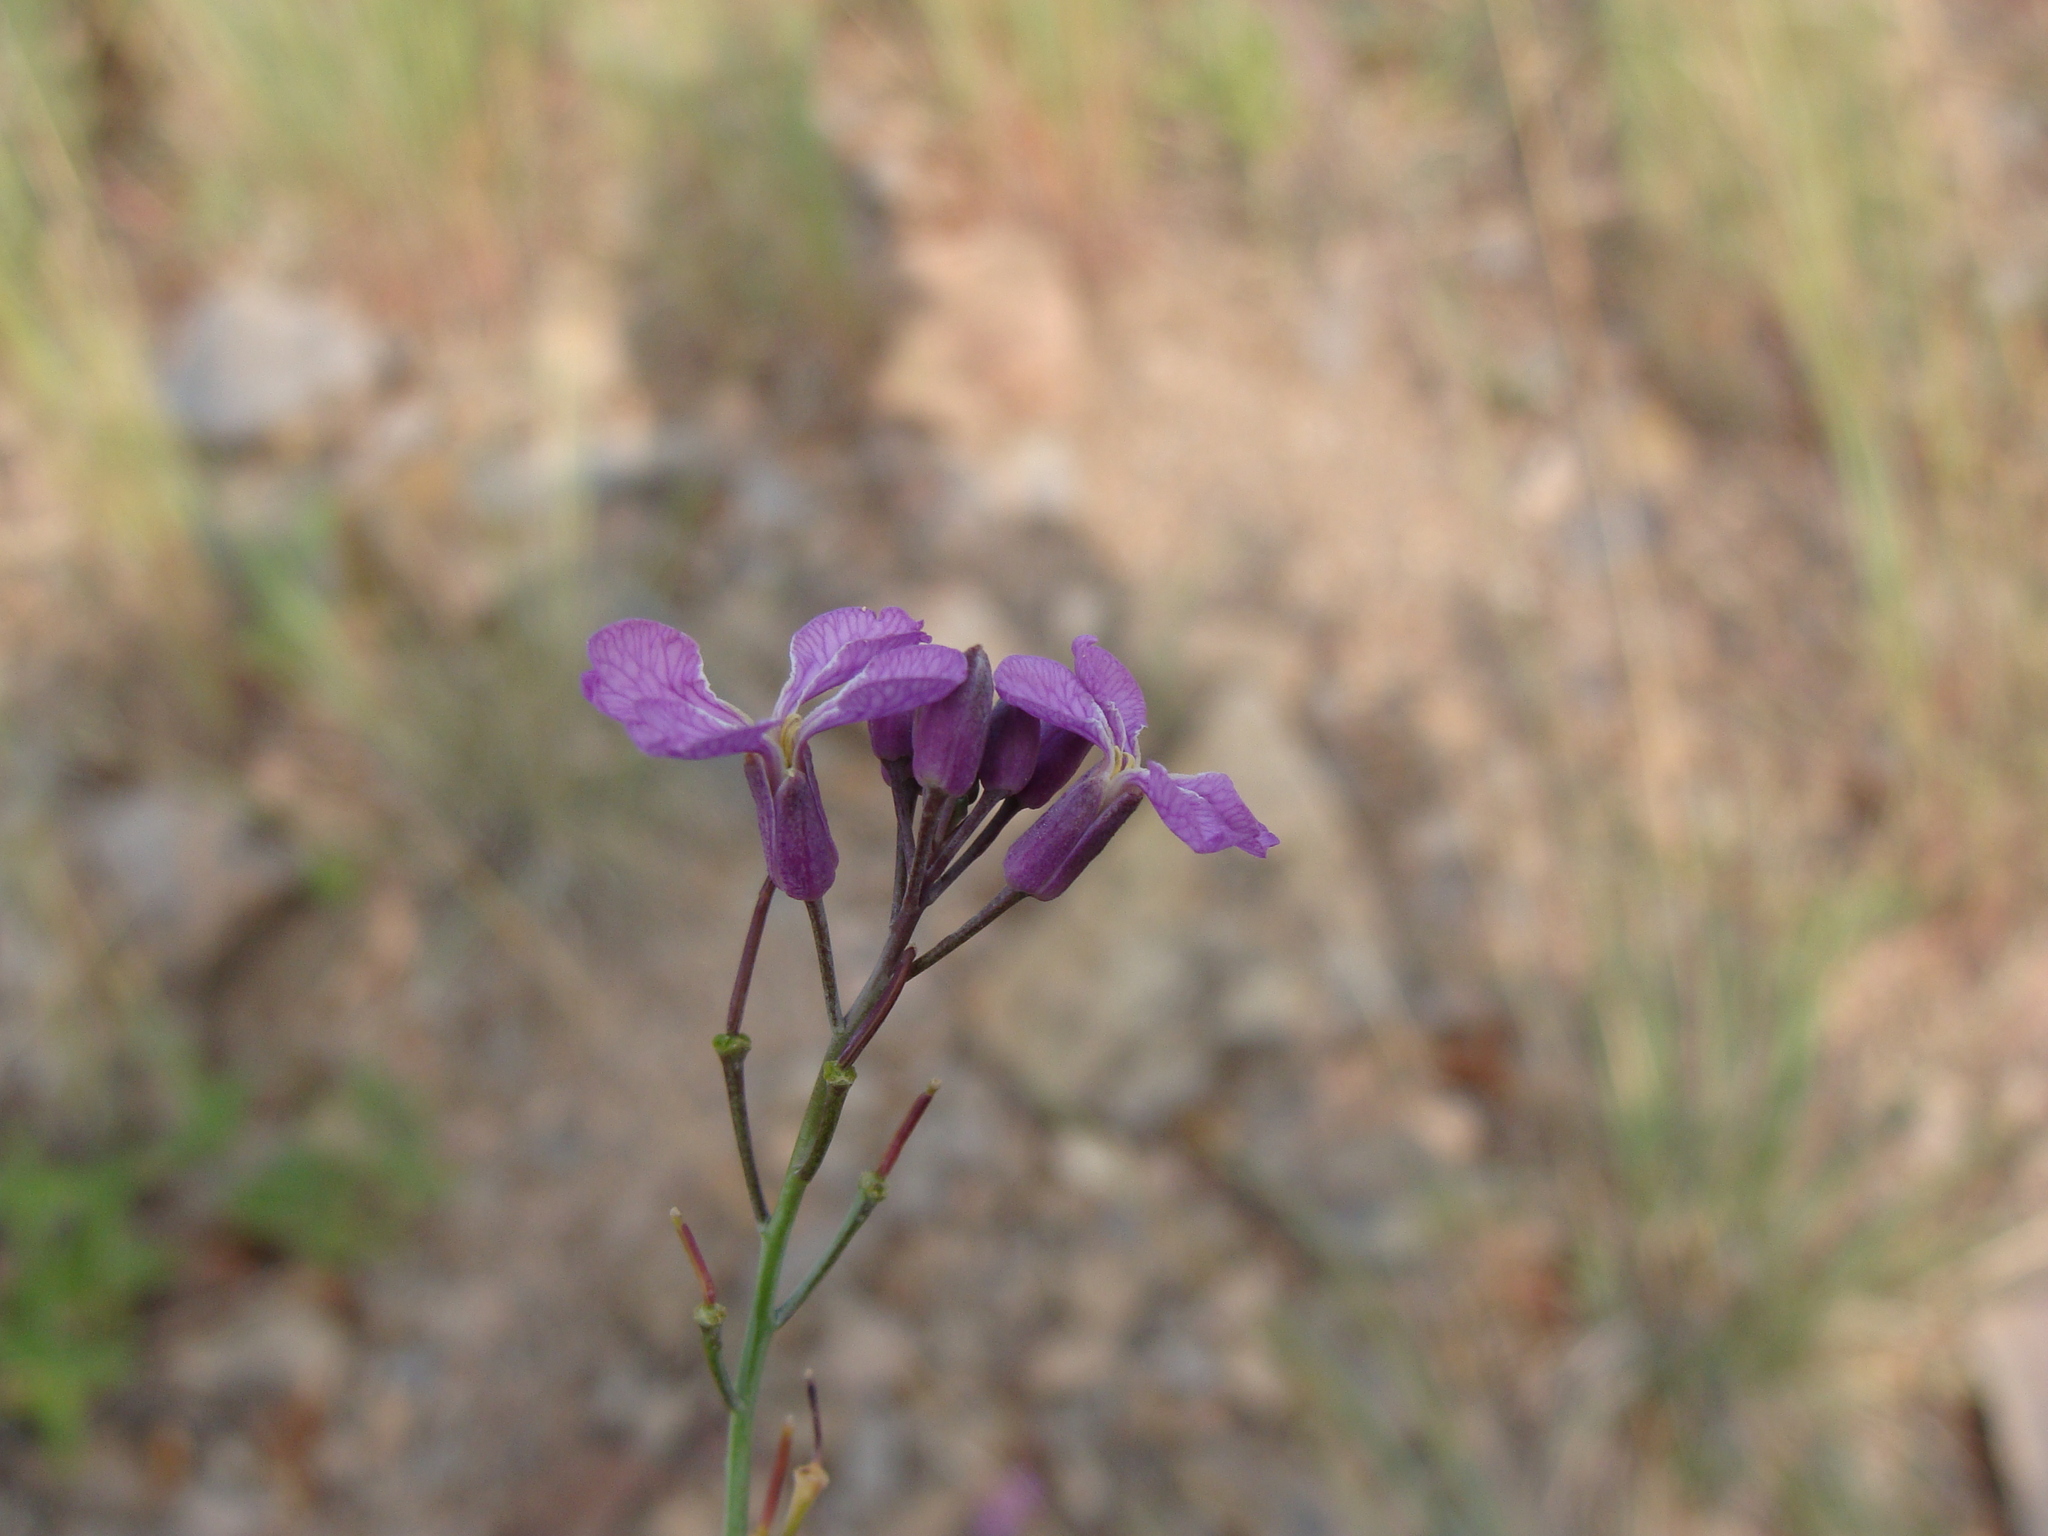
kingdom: Plantae
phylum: Tracheophyta
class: Magnoliopsida
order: Brassicales
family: Brassicaceae
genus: Hesperidanthus
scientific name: Hesperidanthus linearifolius
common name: Slim-leaf plains mustard
